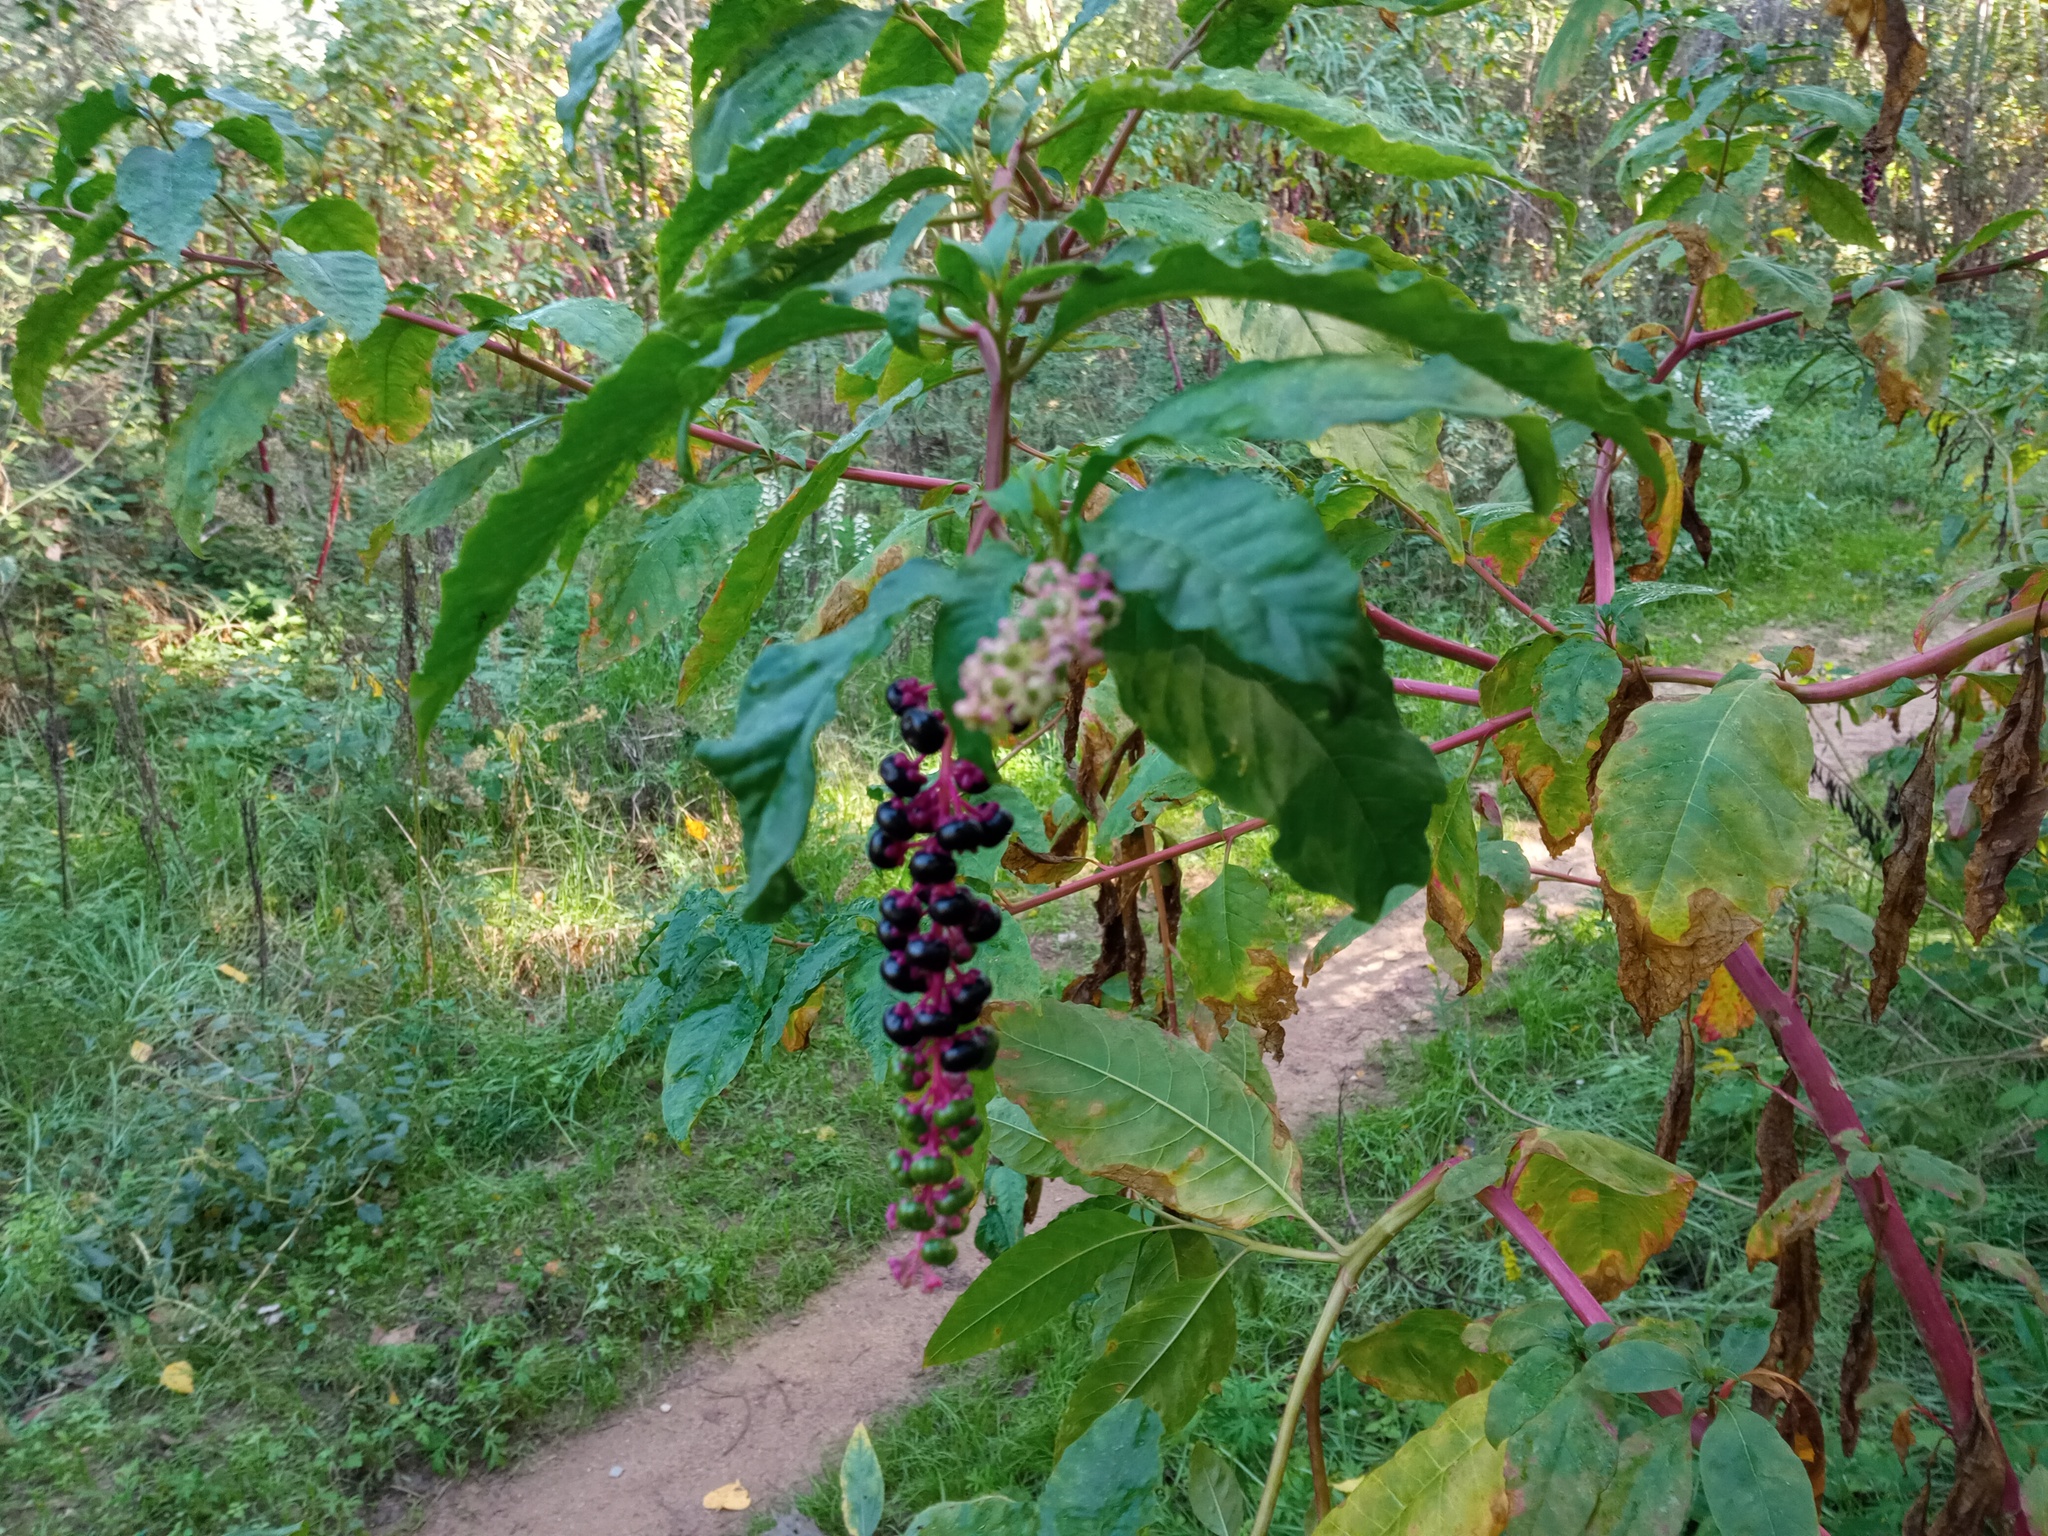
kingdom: Plantae
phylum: Tracheophyta
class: Magnoliopsida
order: Caryophyllales
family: Phytolaccaceae
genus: Phytolacca
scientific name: Phytolacca americana
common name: American pokeweed
